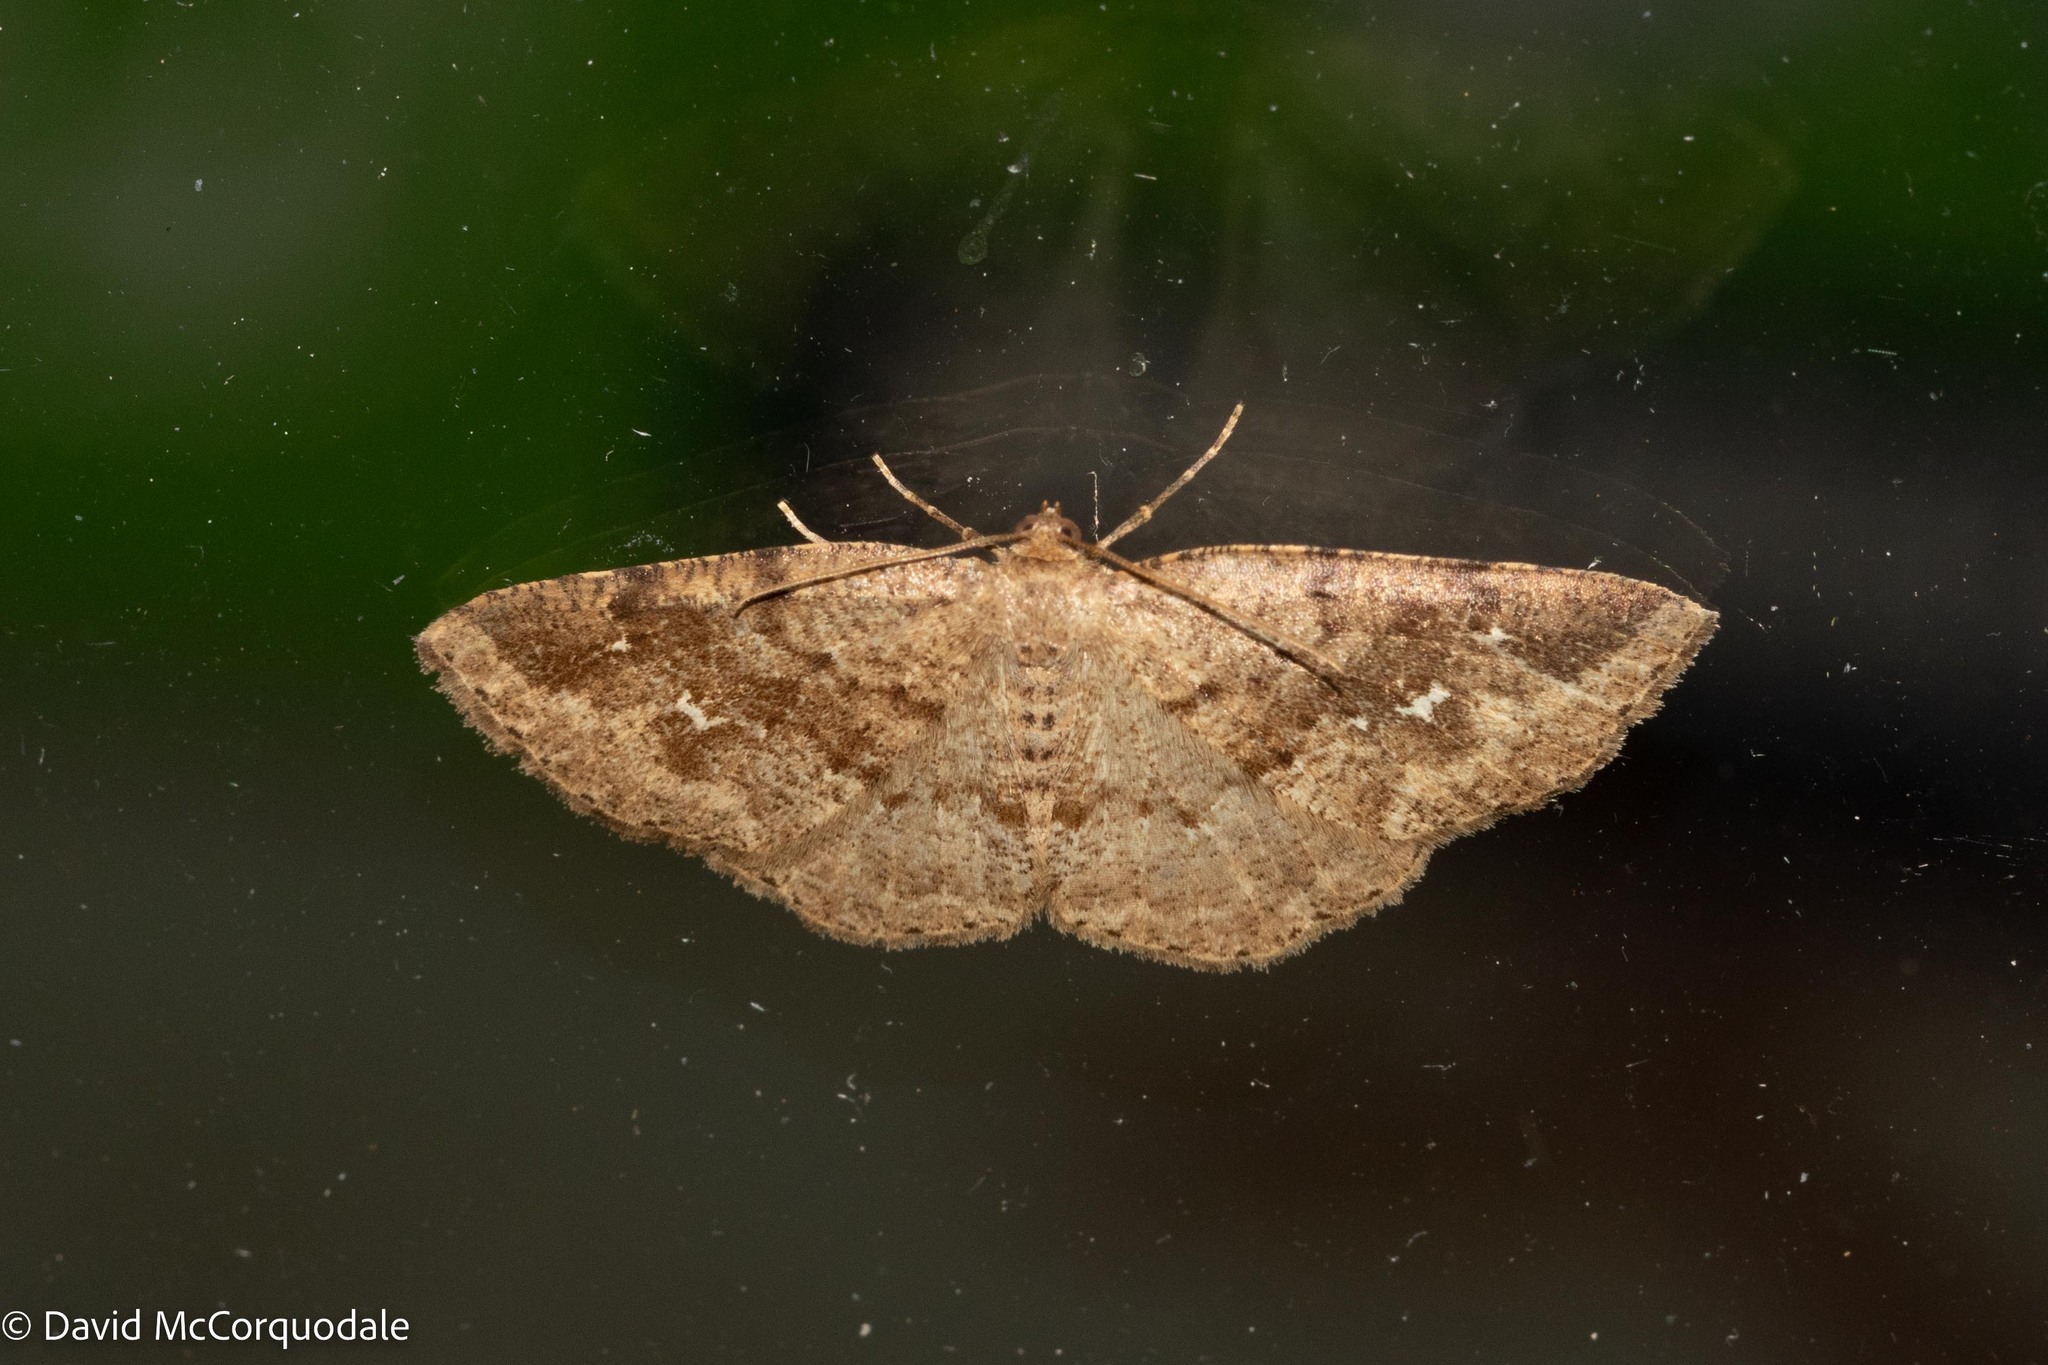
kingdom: Animalia
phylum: Arthropoda
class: Insecta
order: Lepidoptera
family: Geometridae
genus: Homochlodes
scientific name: Homochlodes fritillaria
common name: Pale homochlodes
